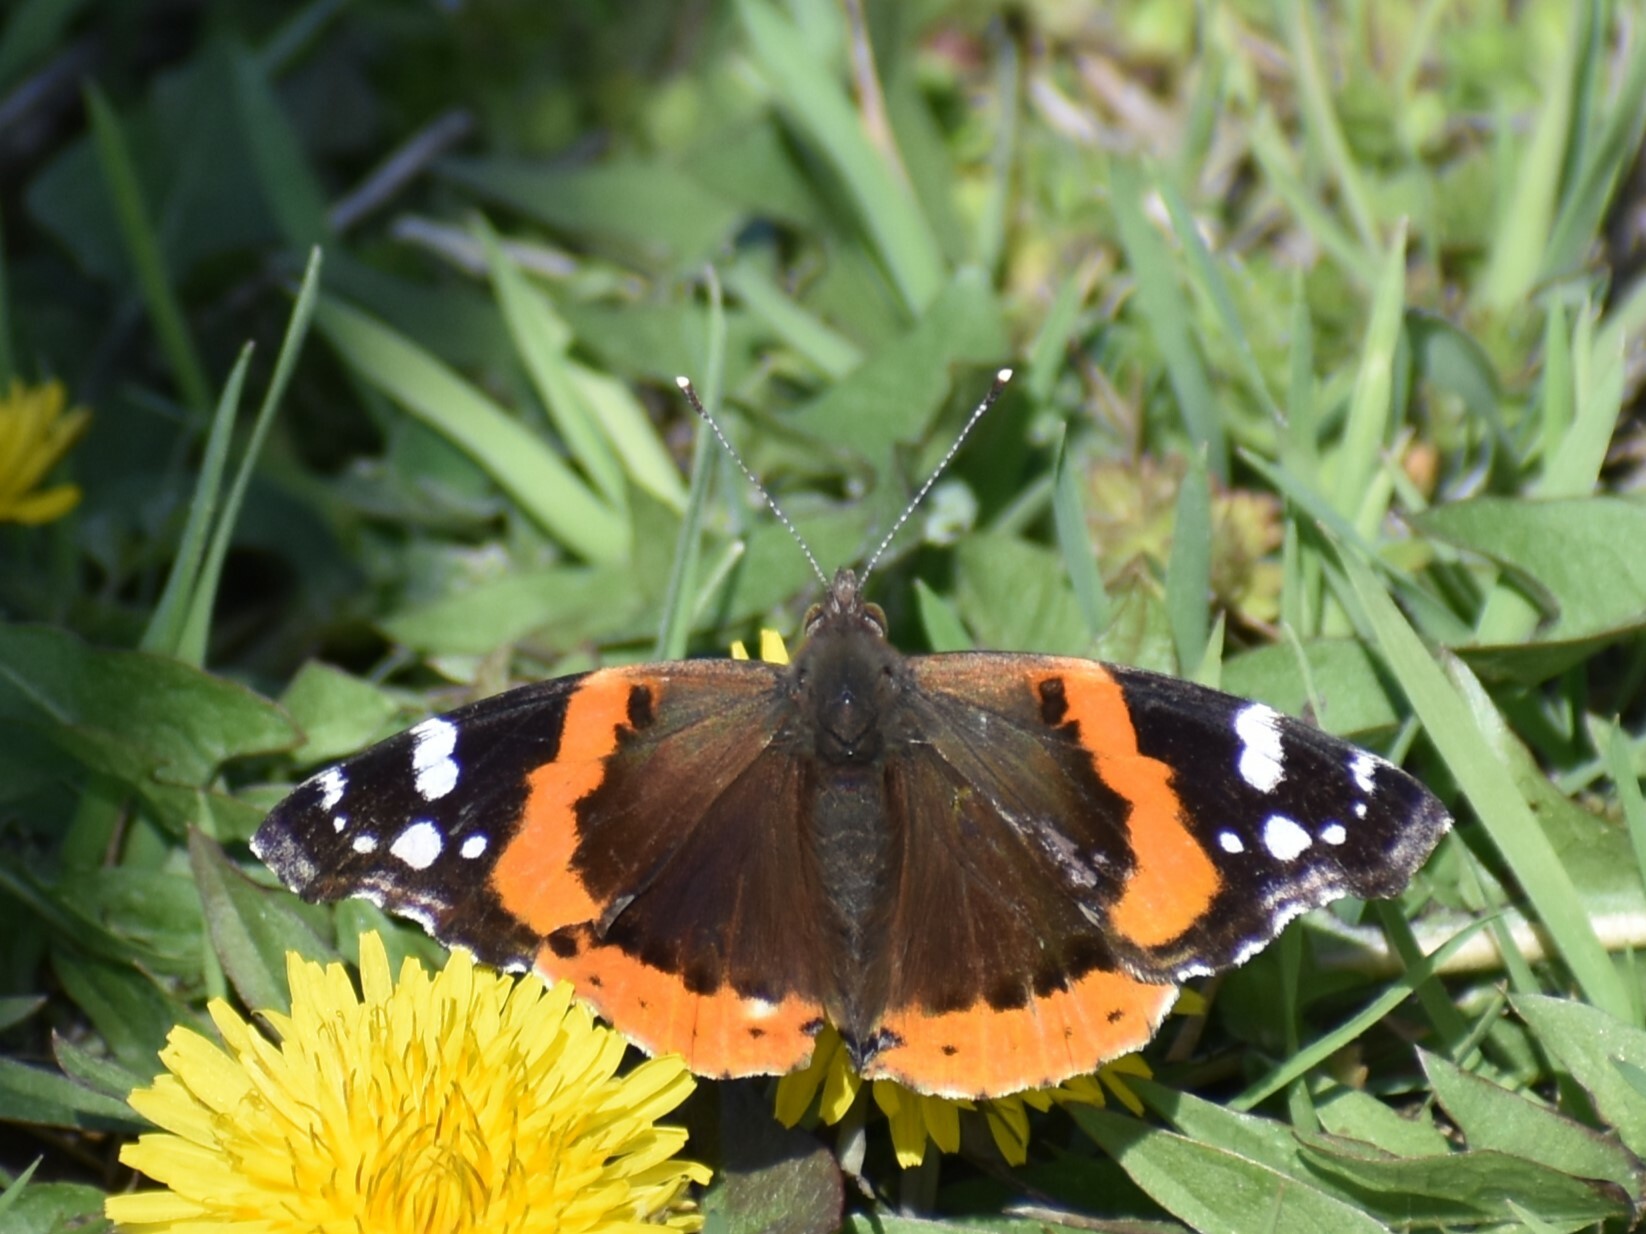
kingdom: Animalia
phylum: Arthropoda
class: Insecta
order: Lepidoptera
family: Nymphalidae
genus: Vanessa
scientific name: Vanessa atalanta
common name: Red admiral
